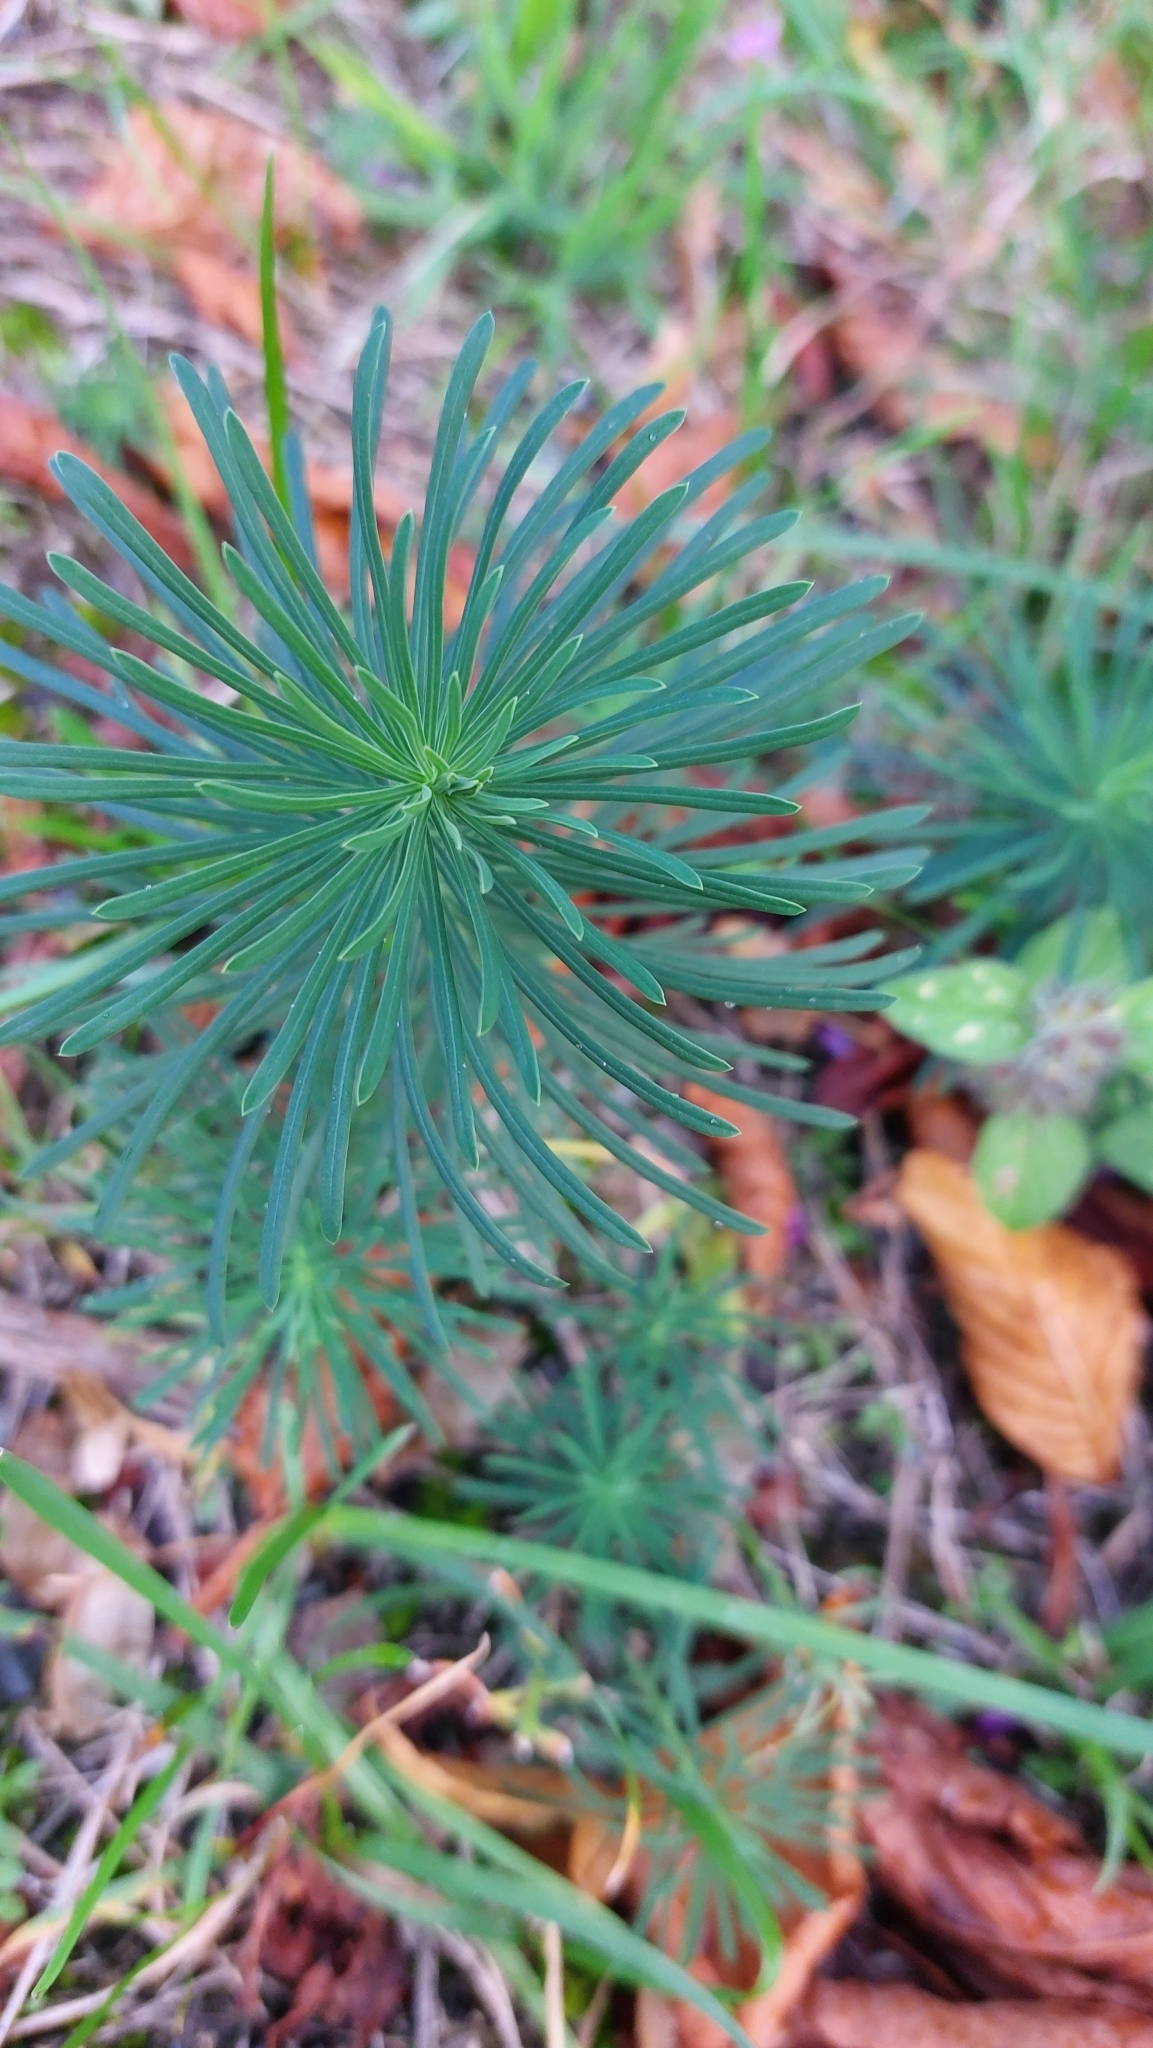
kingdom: Plantae
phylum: Tracheophyta
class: Magnoliopsida
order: Malpighiales
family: Euphorbiaceae
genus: Euphorbia
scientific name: Euphorbia cyparissias
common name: Cypress spurge
